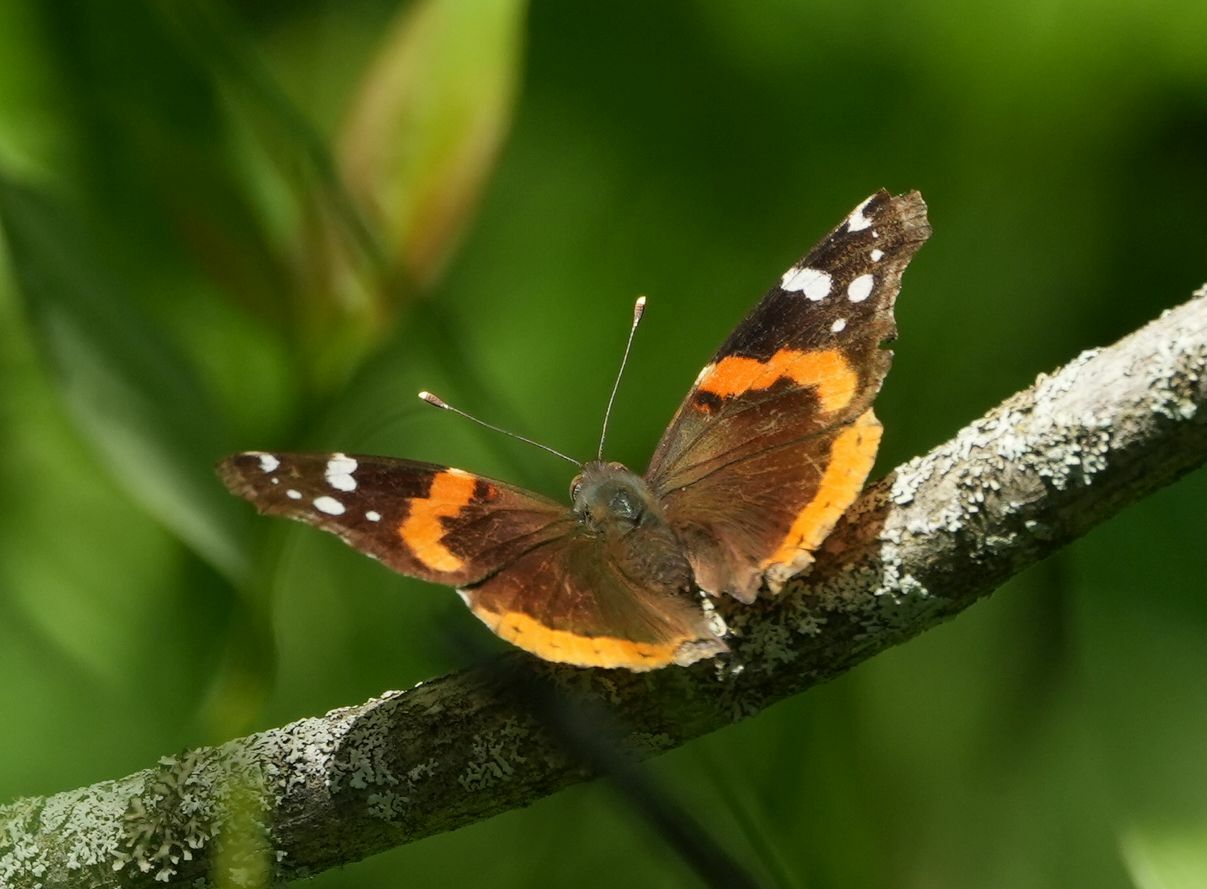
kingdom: Animalia
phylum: Arthropoda
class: Insecta
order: Lepidoptera
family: Nymphalidae
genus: Vanessa
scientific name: Vanessa atalanta
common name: Red admiral
